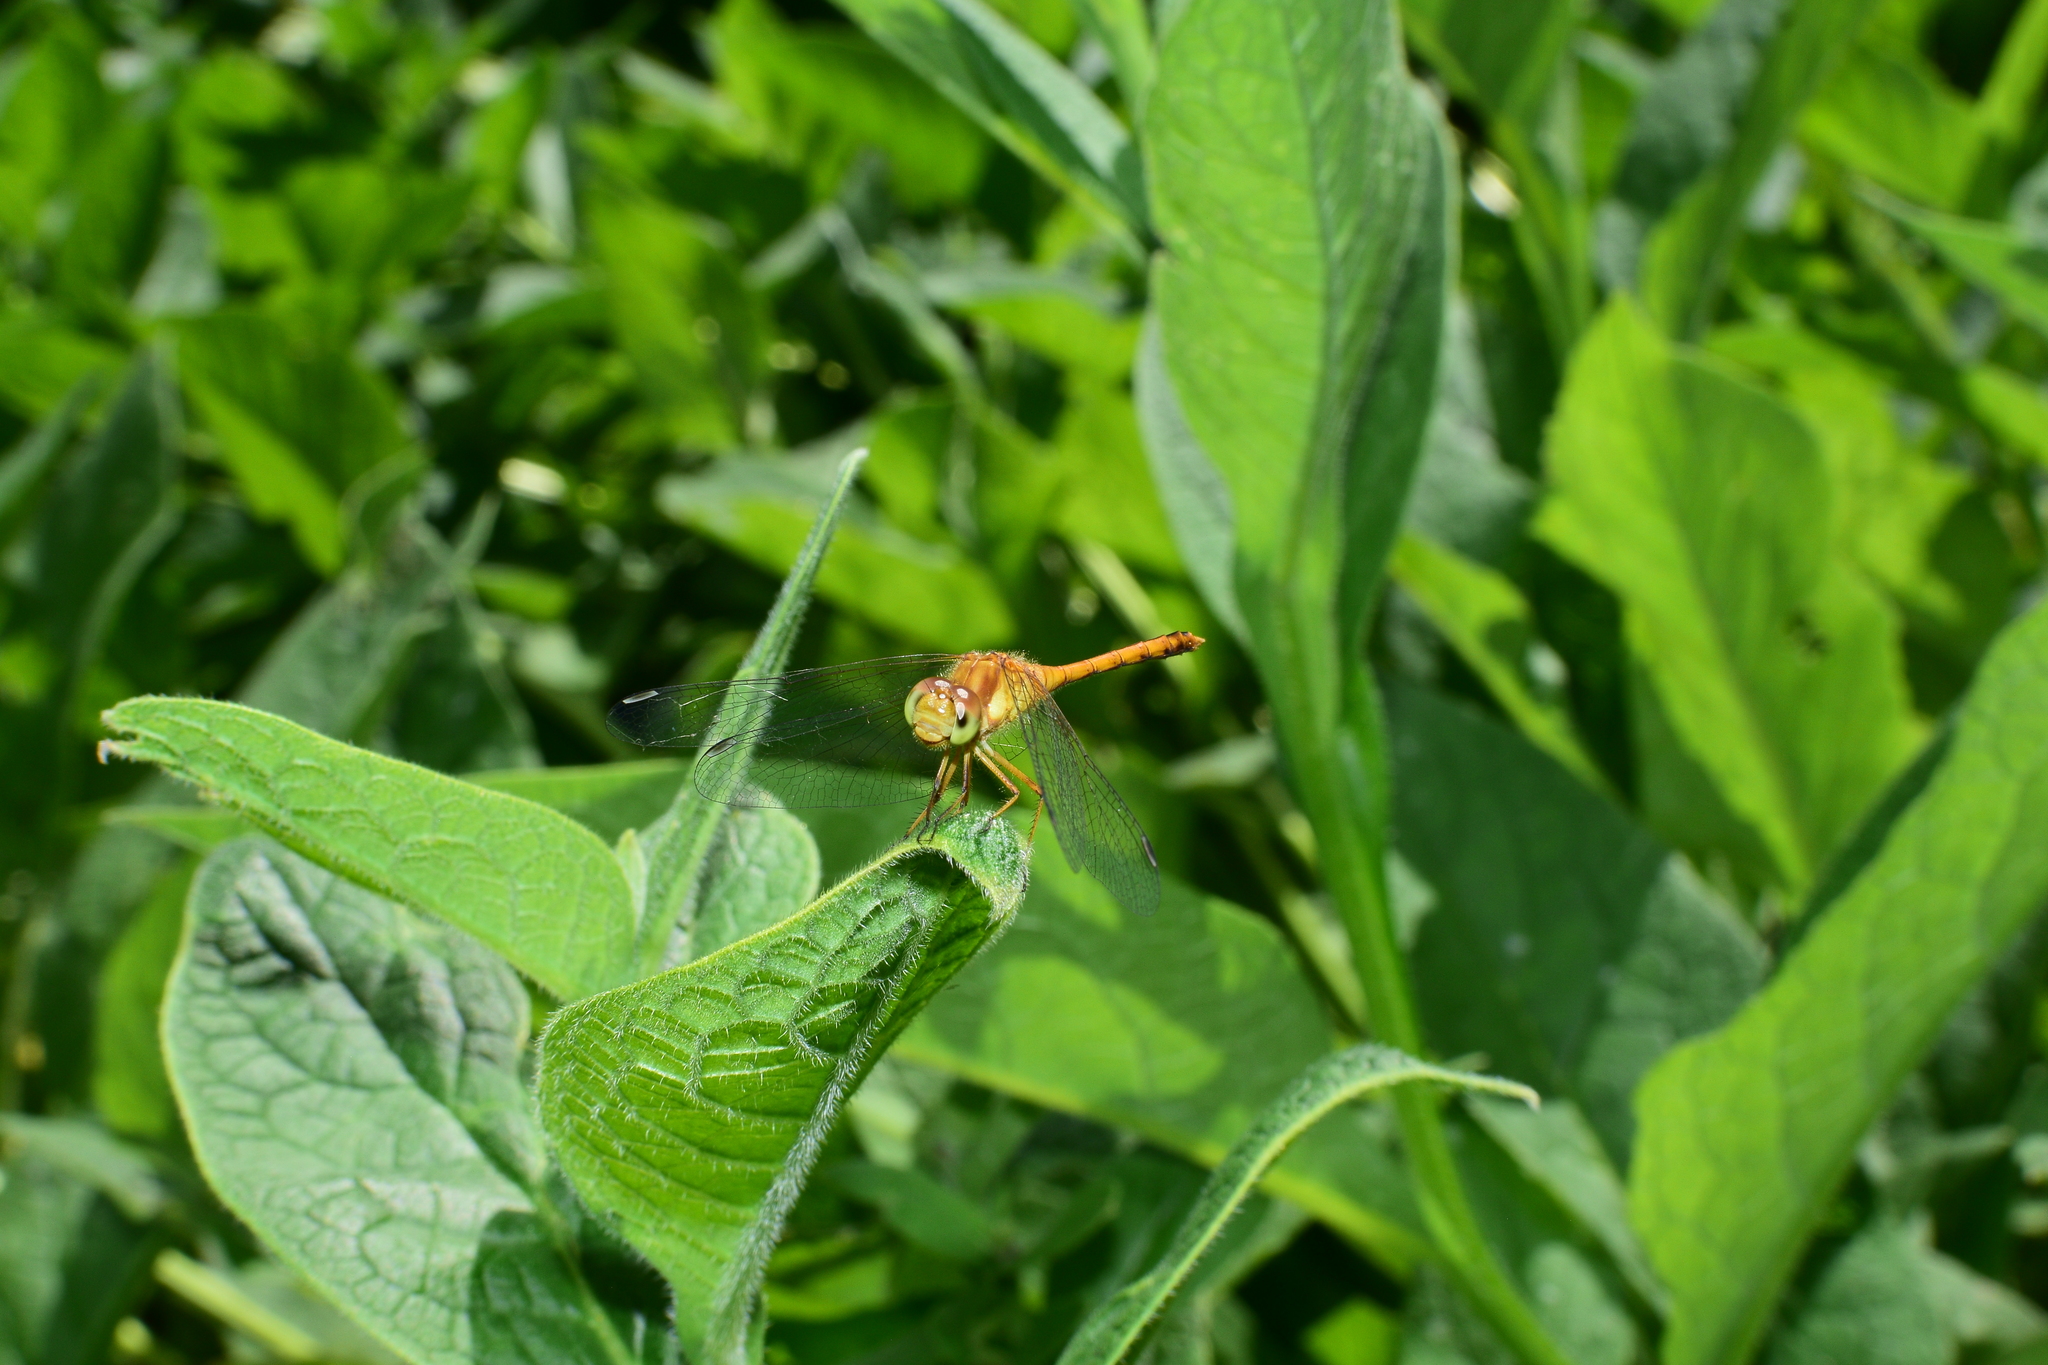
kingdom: Animalia
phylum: Arthropoda
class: Insecta
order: Odonata
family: Libellulidae
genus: Sympetrum
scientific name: Sympetrum vicinum
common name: Autumn meadowhawk
